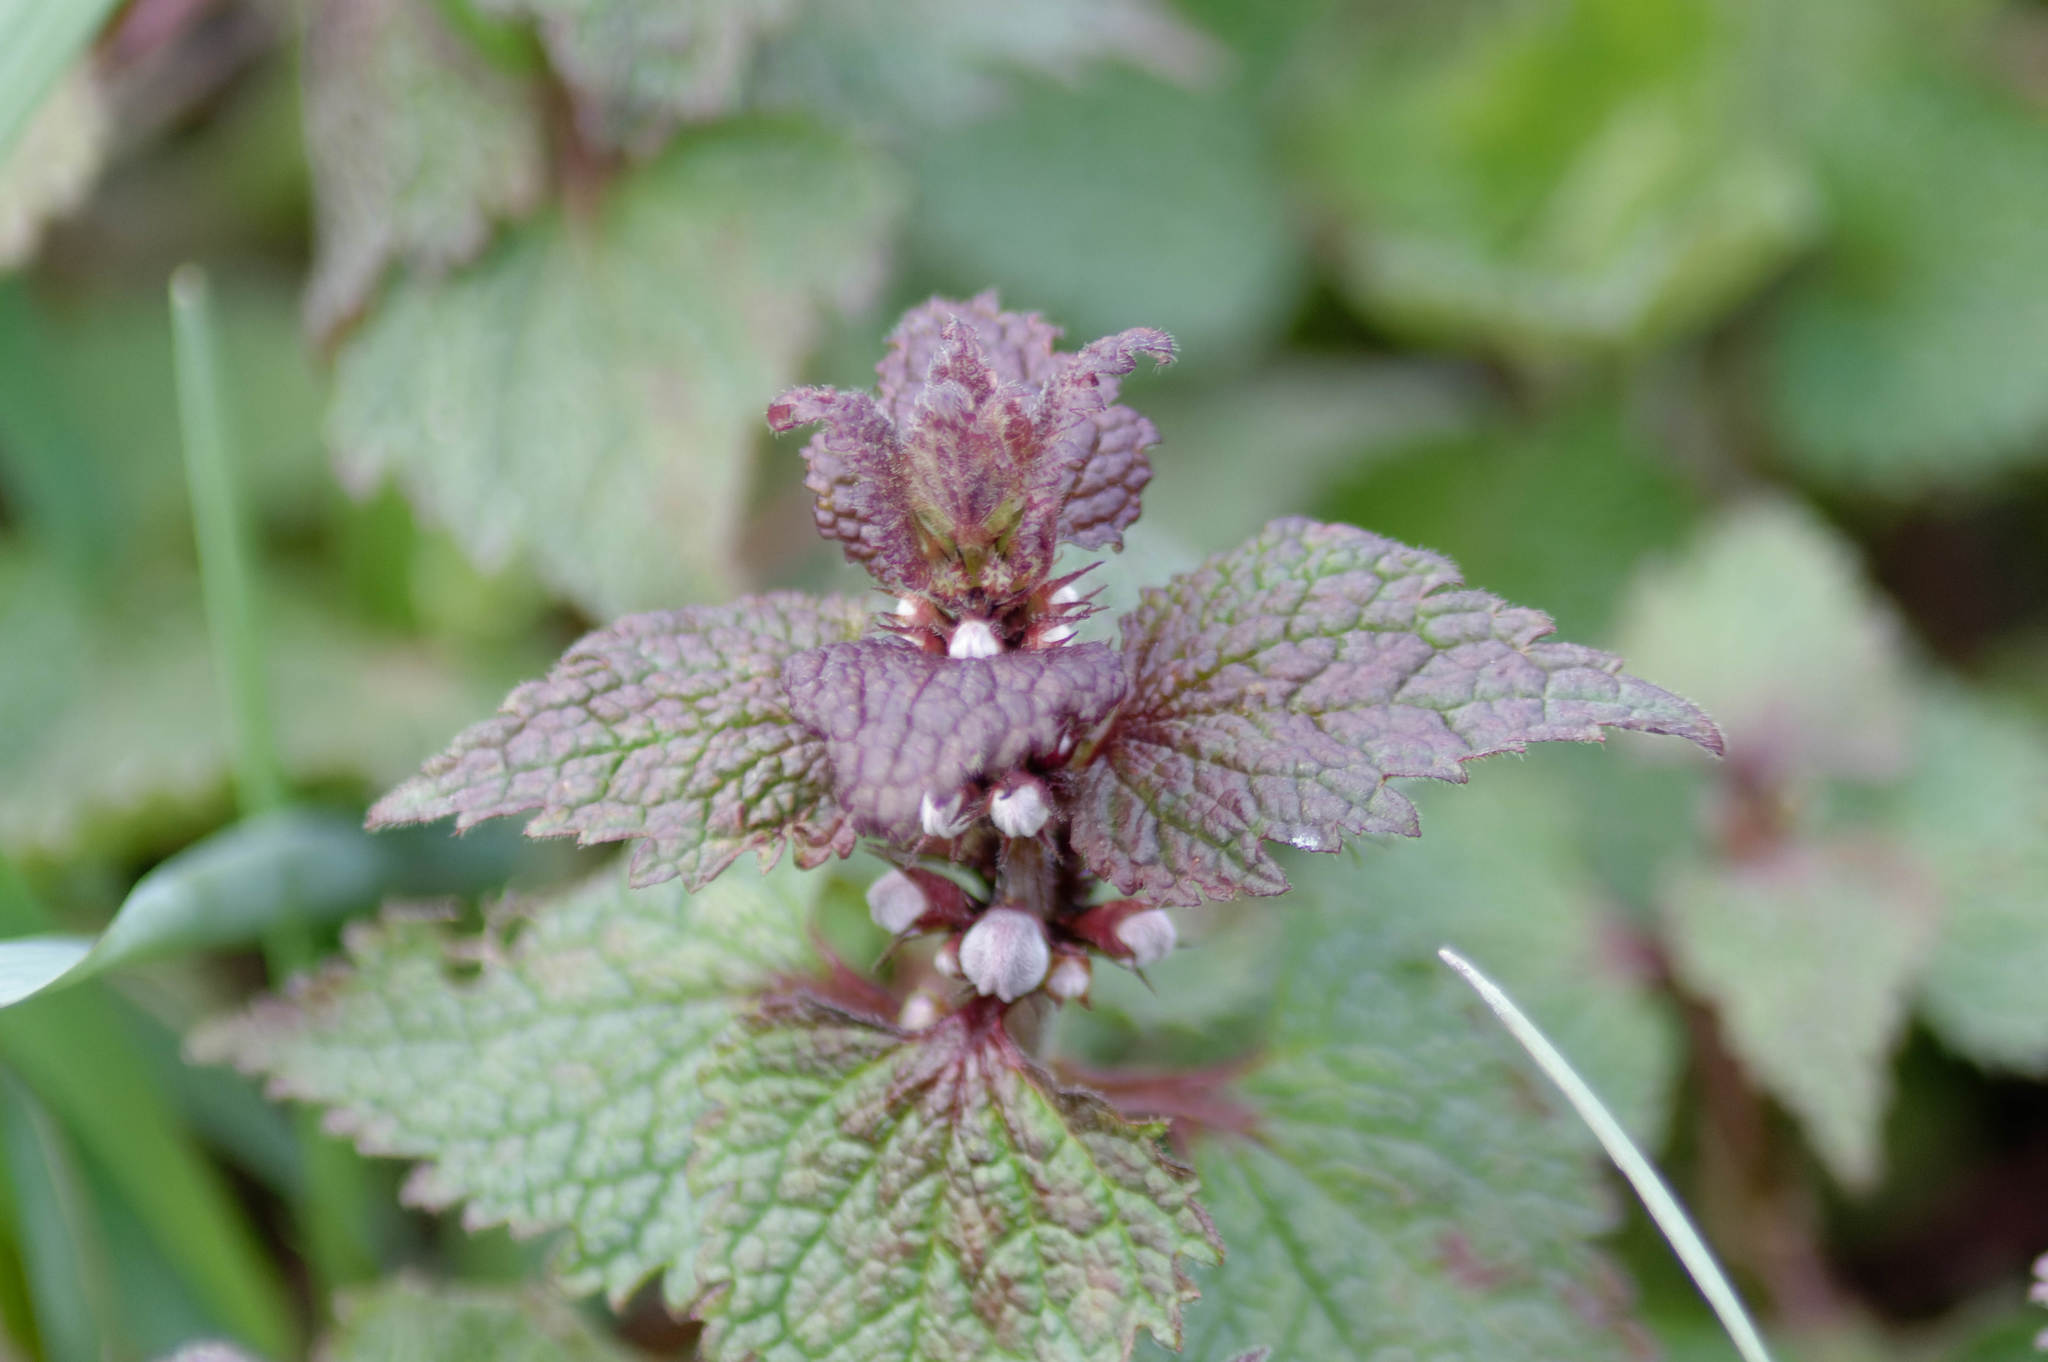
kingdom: Plantae
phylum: Tracheophyta
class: Magnoliopsida
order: Lamiales
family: Lamiaceae
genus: Lamium
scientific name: Lamium purpureum
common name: Red dead-nettle
